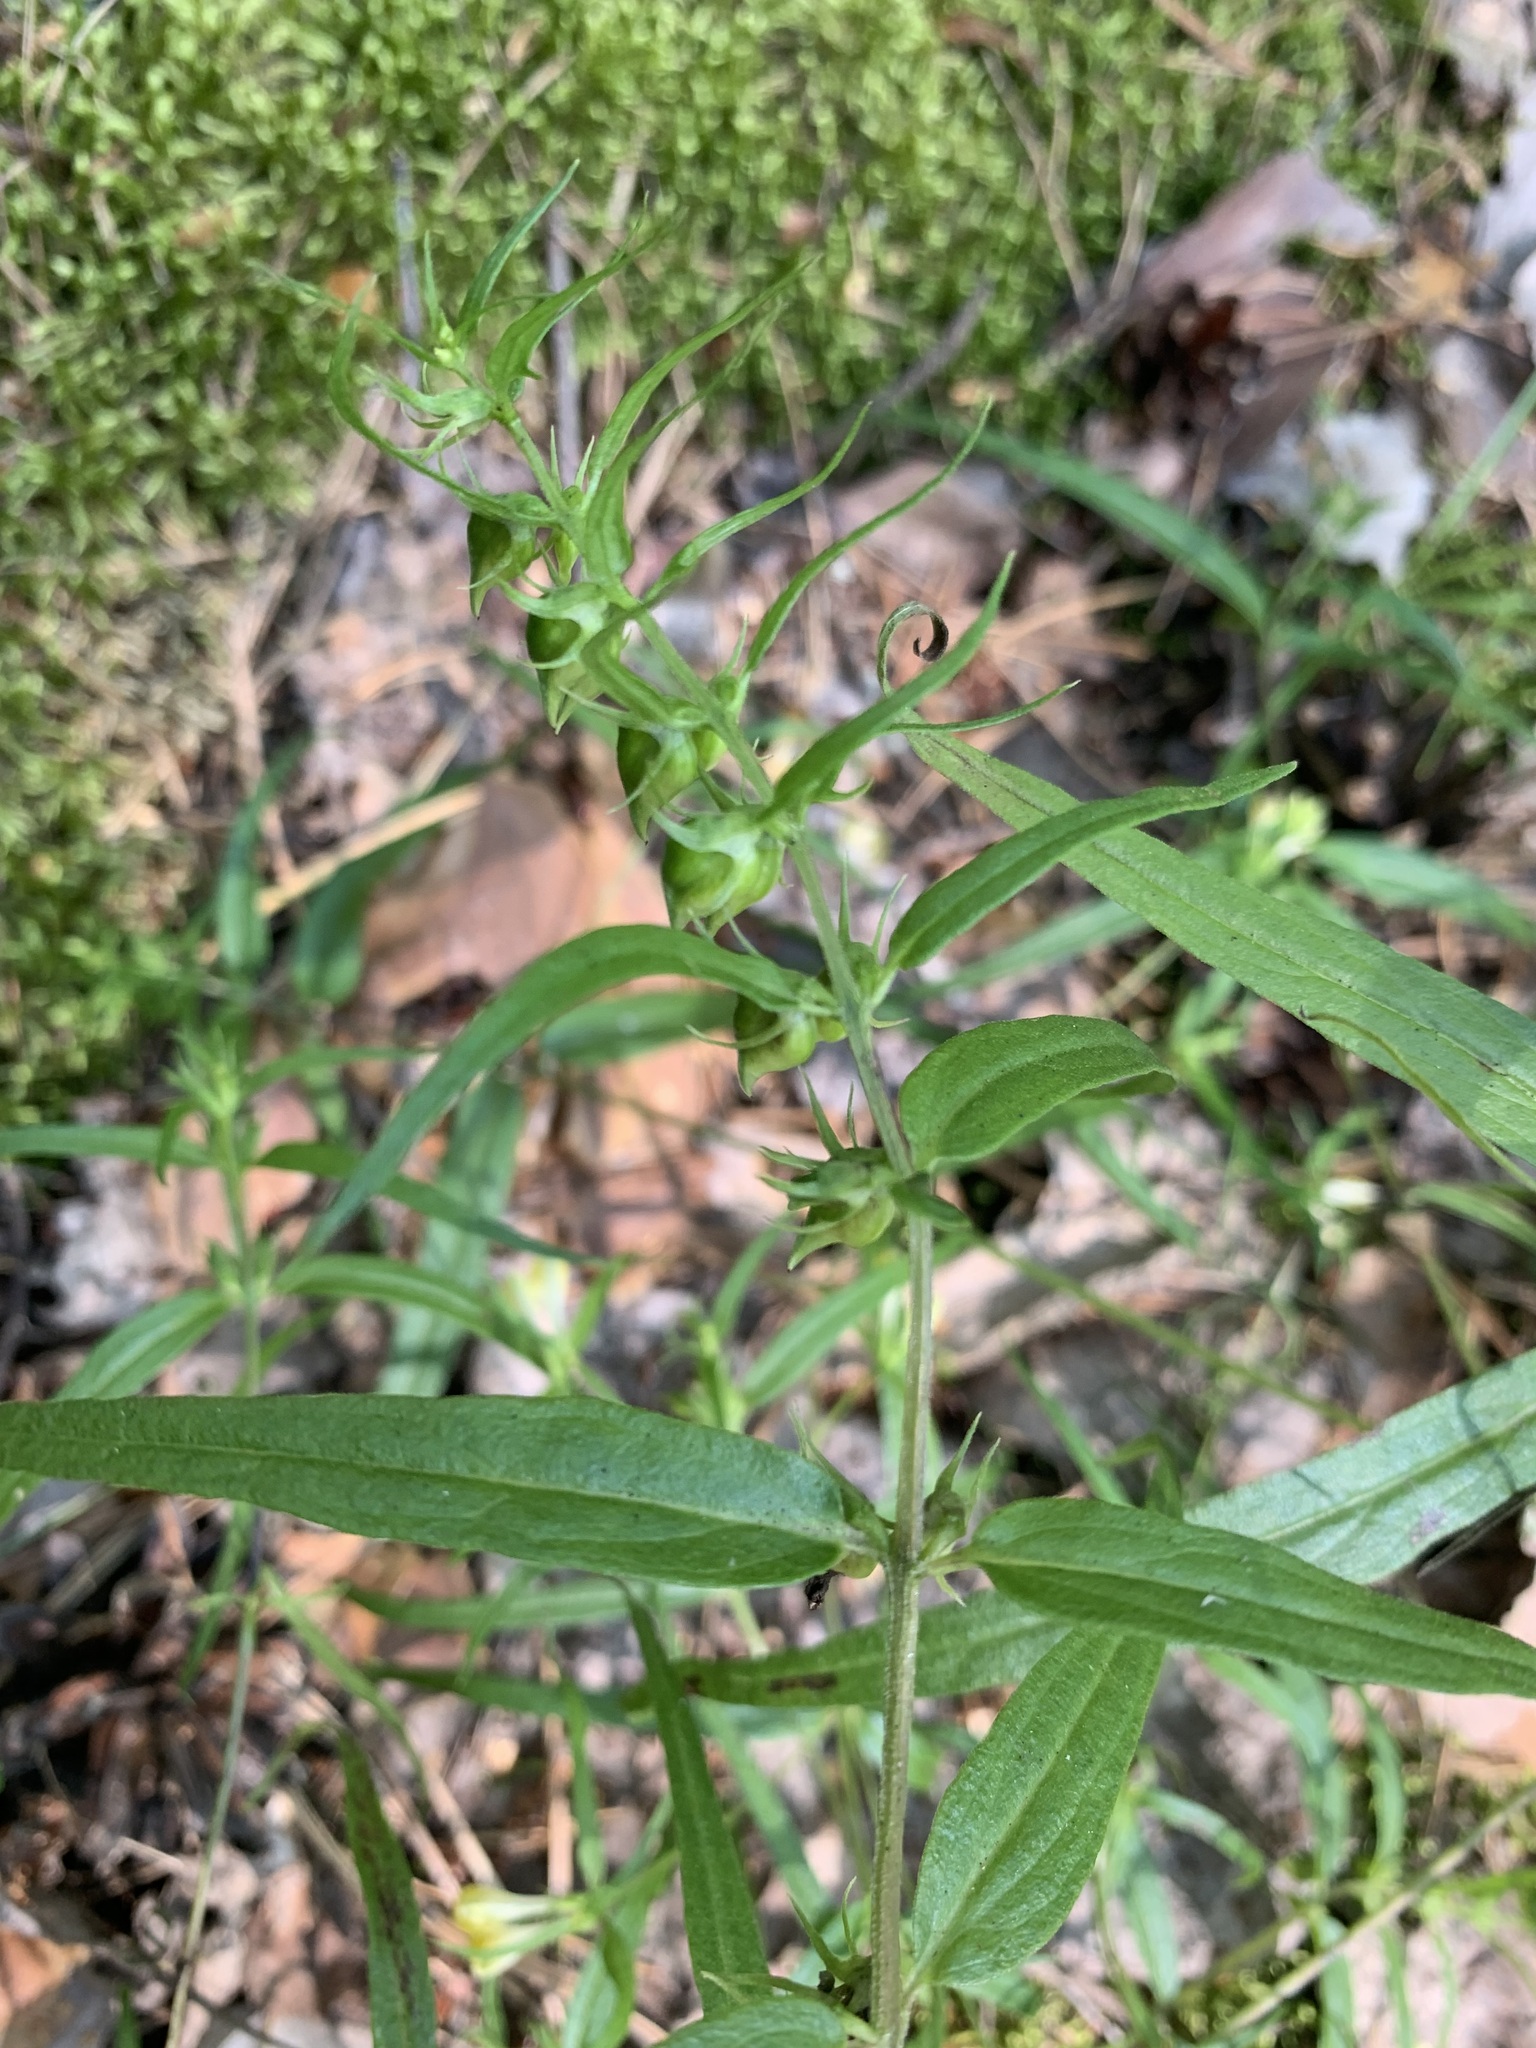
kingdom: Plantae
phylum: Tracheophyta
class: Magnoliopsida
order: Lamiales
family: Orobanchaceae
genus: Melampyrum
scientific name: Melampyrum pratense
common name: Common cow-wheat
